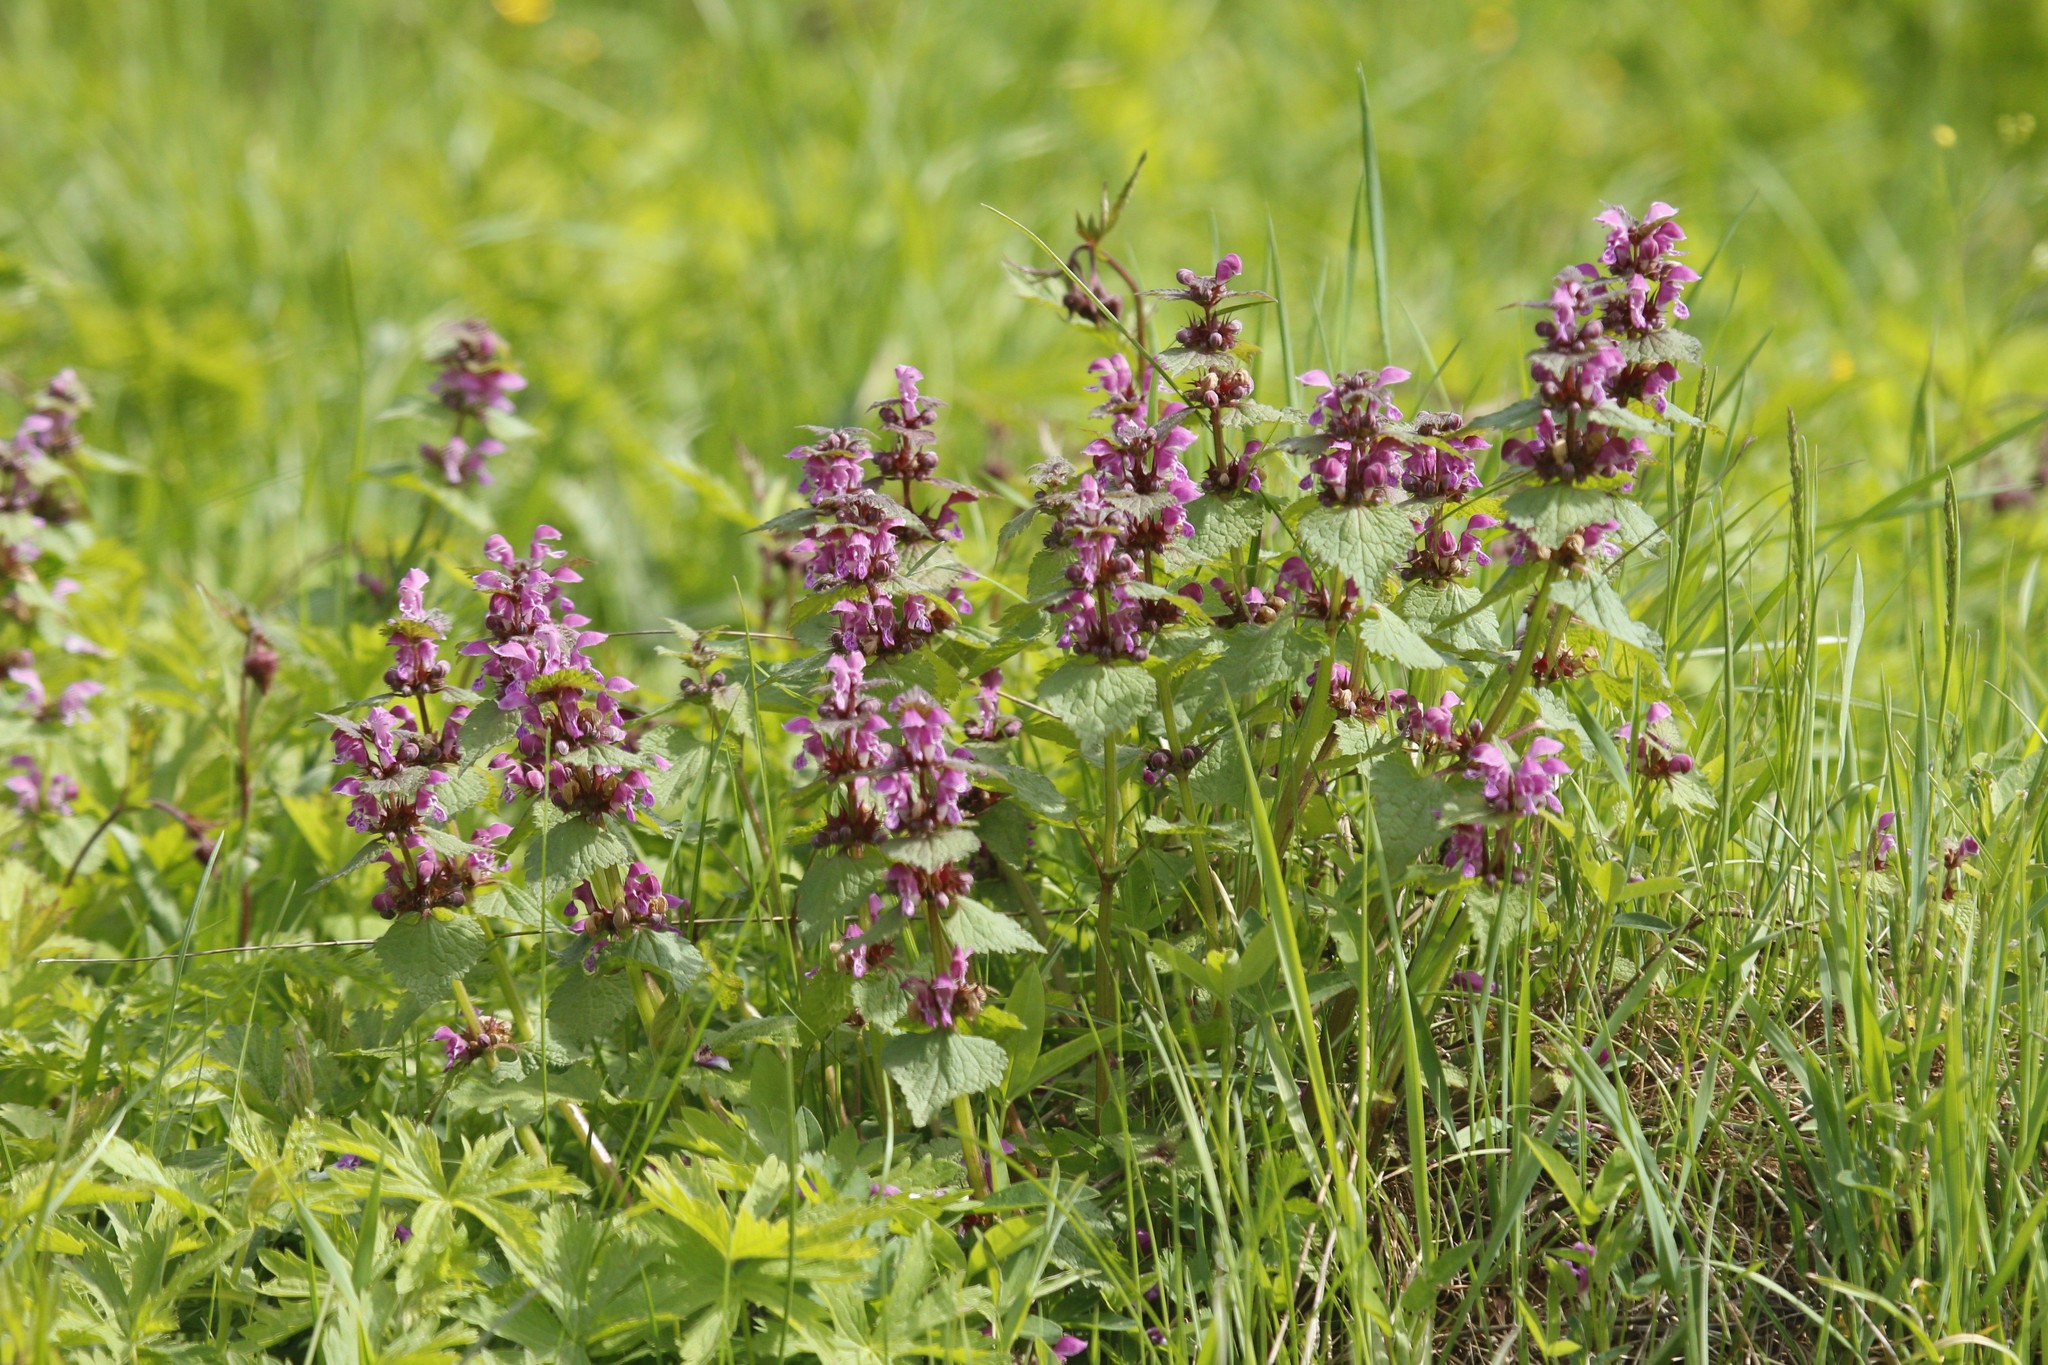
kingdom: Plantae
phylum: Tracheophyta
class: Magnoliopsida
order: Lamiales
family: Lamiaceae
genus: Lamium
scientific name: Lamium maculatum
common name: Spotted dead-nettle
